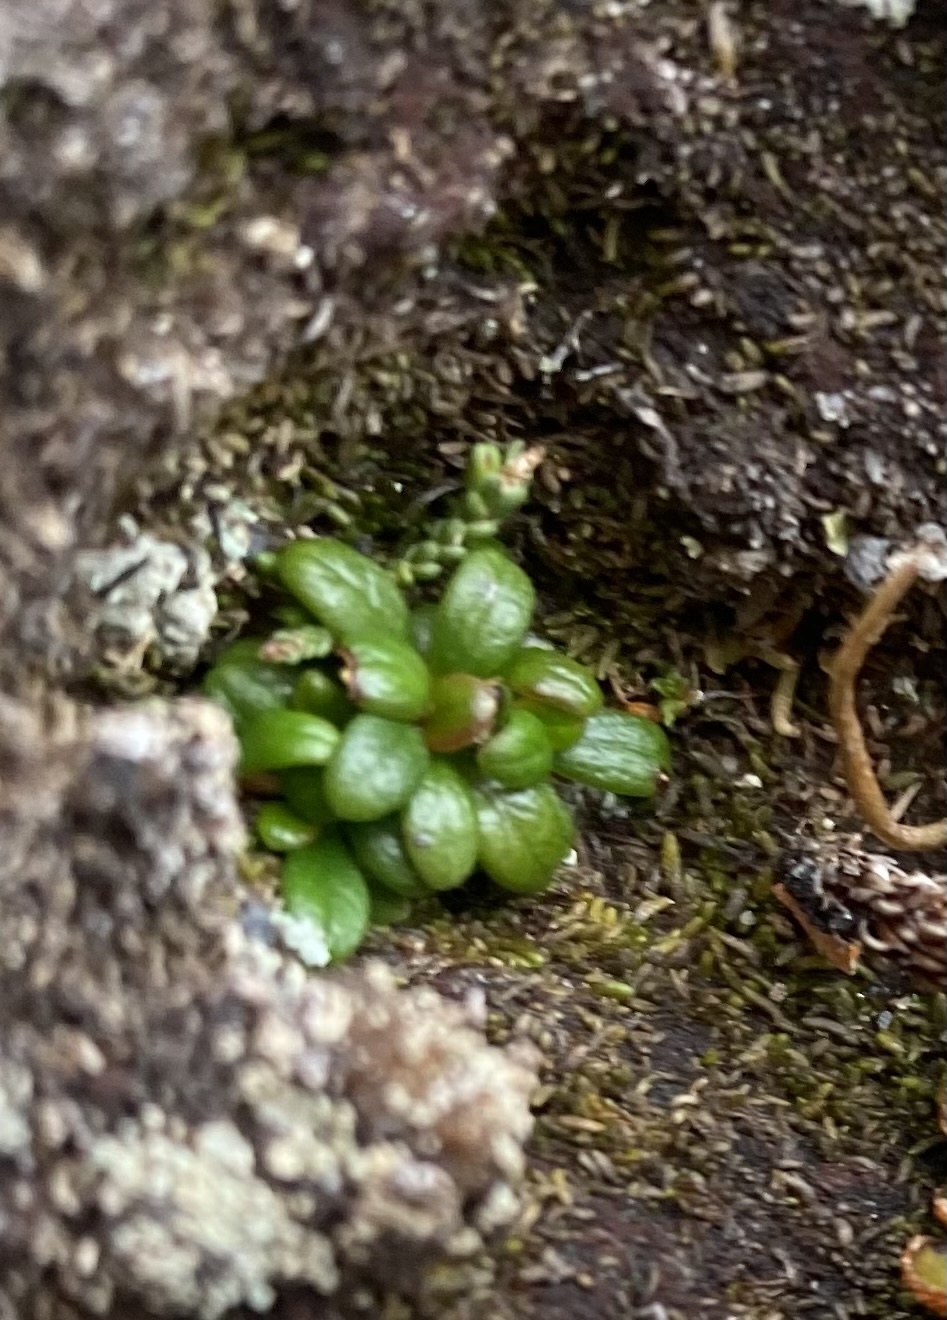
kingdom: Plantae
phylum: Tracheophyta
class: Magnoliopsida
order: Ericales
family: Ericaceae
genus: Pieris
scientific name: Pieris nana
